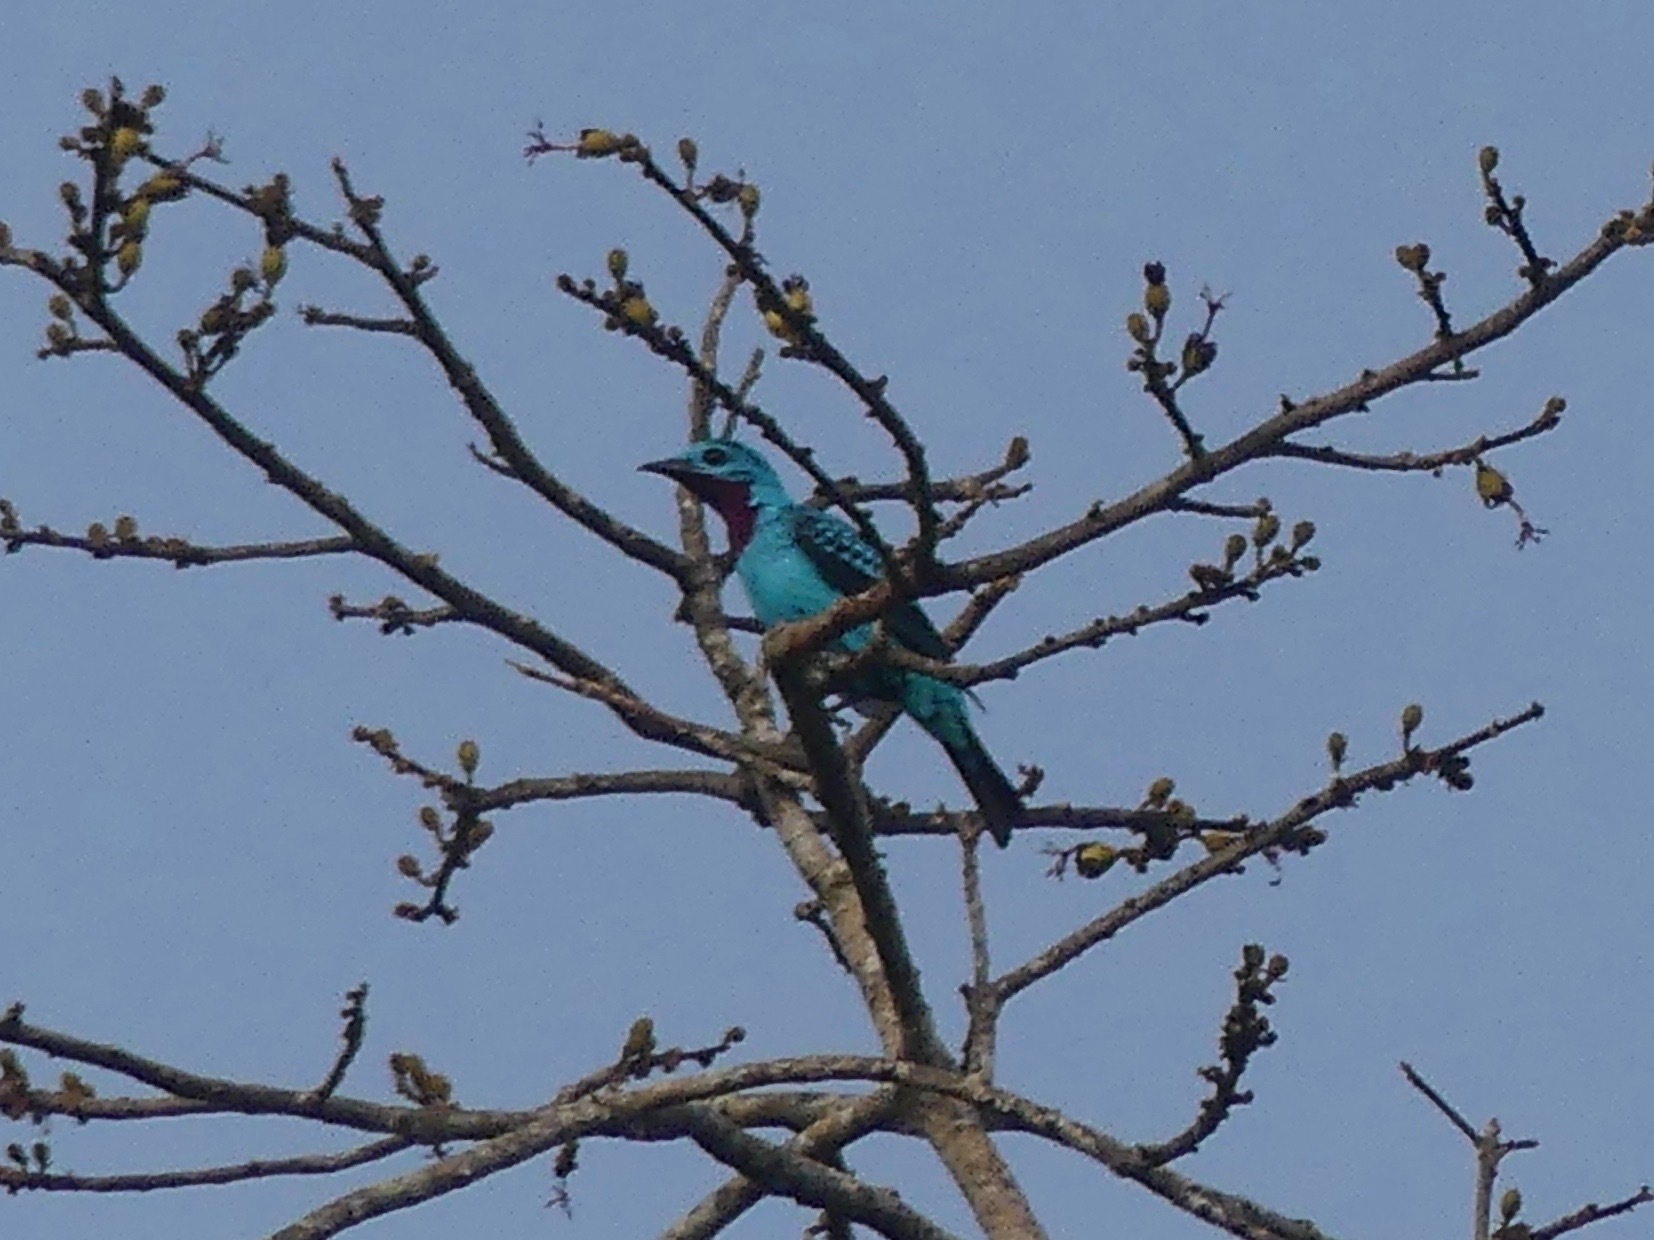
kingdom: Animalia
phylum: Chordata
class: Aves
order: Passeriformes
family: Cotingidae
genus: Cotinga
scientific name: Cotinga cayana
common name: Spangled cotinga
